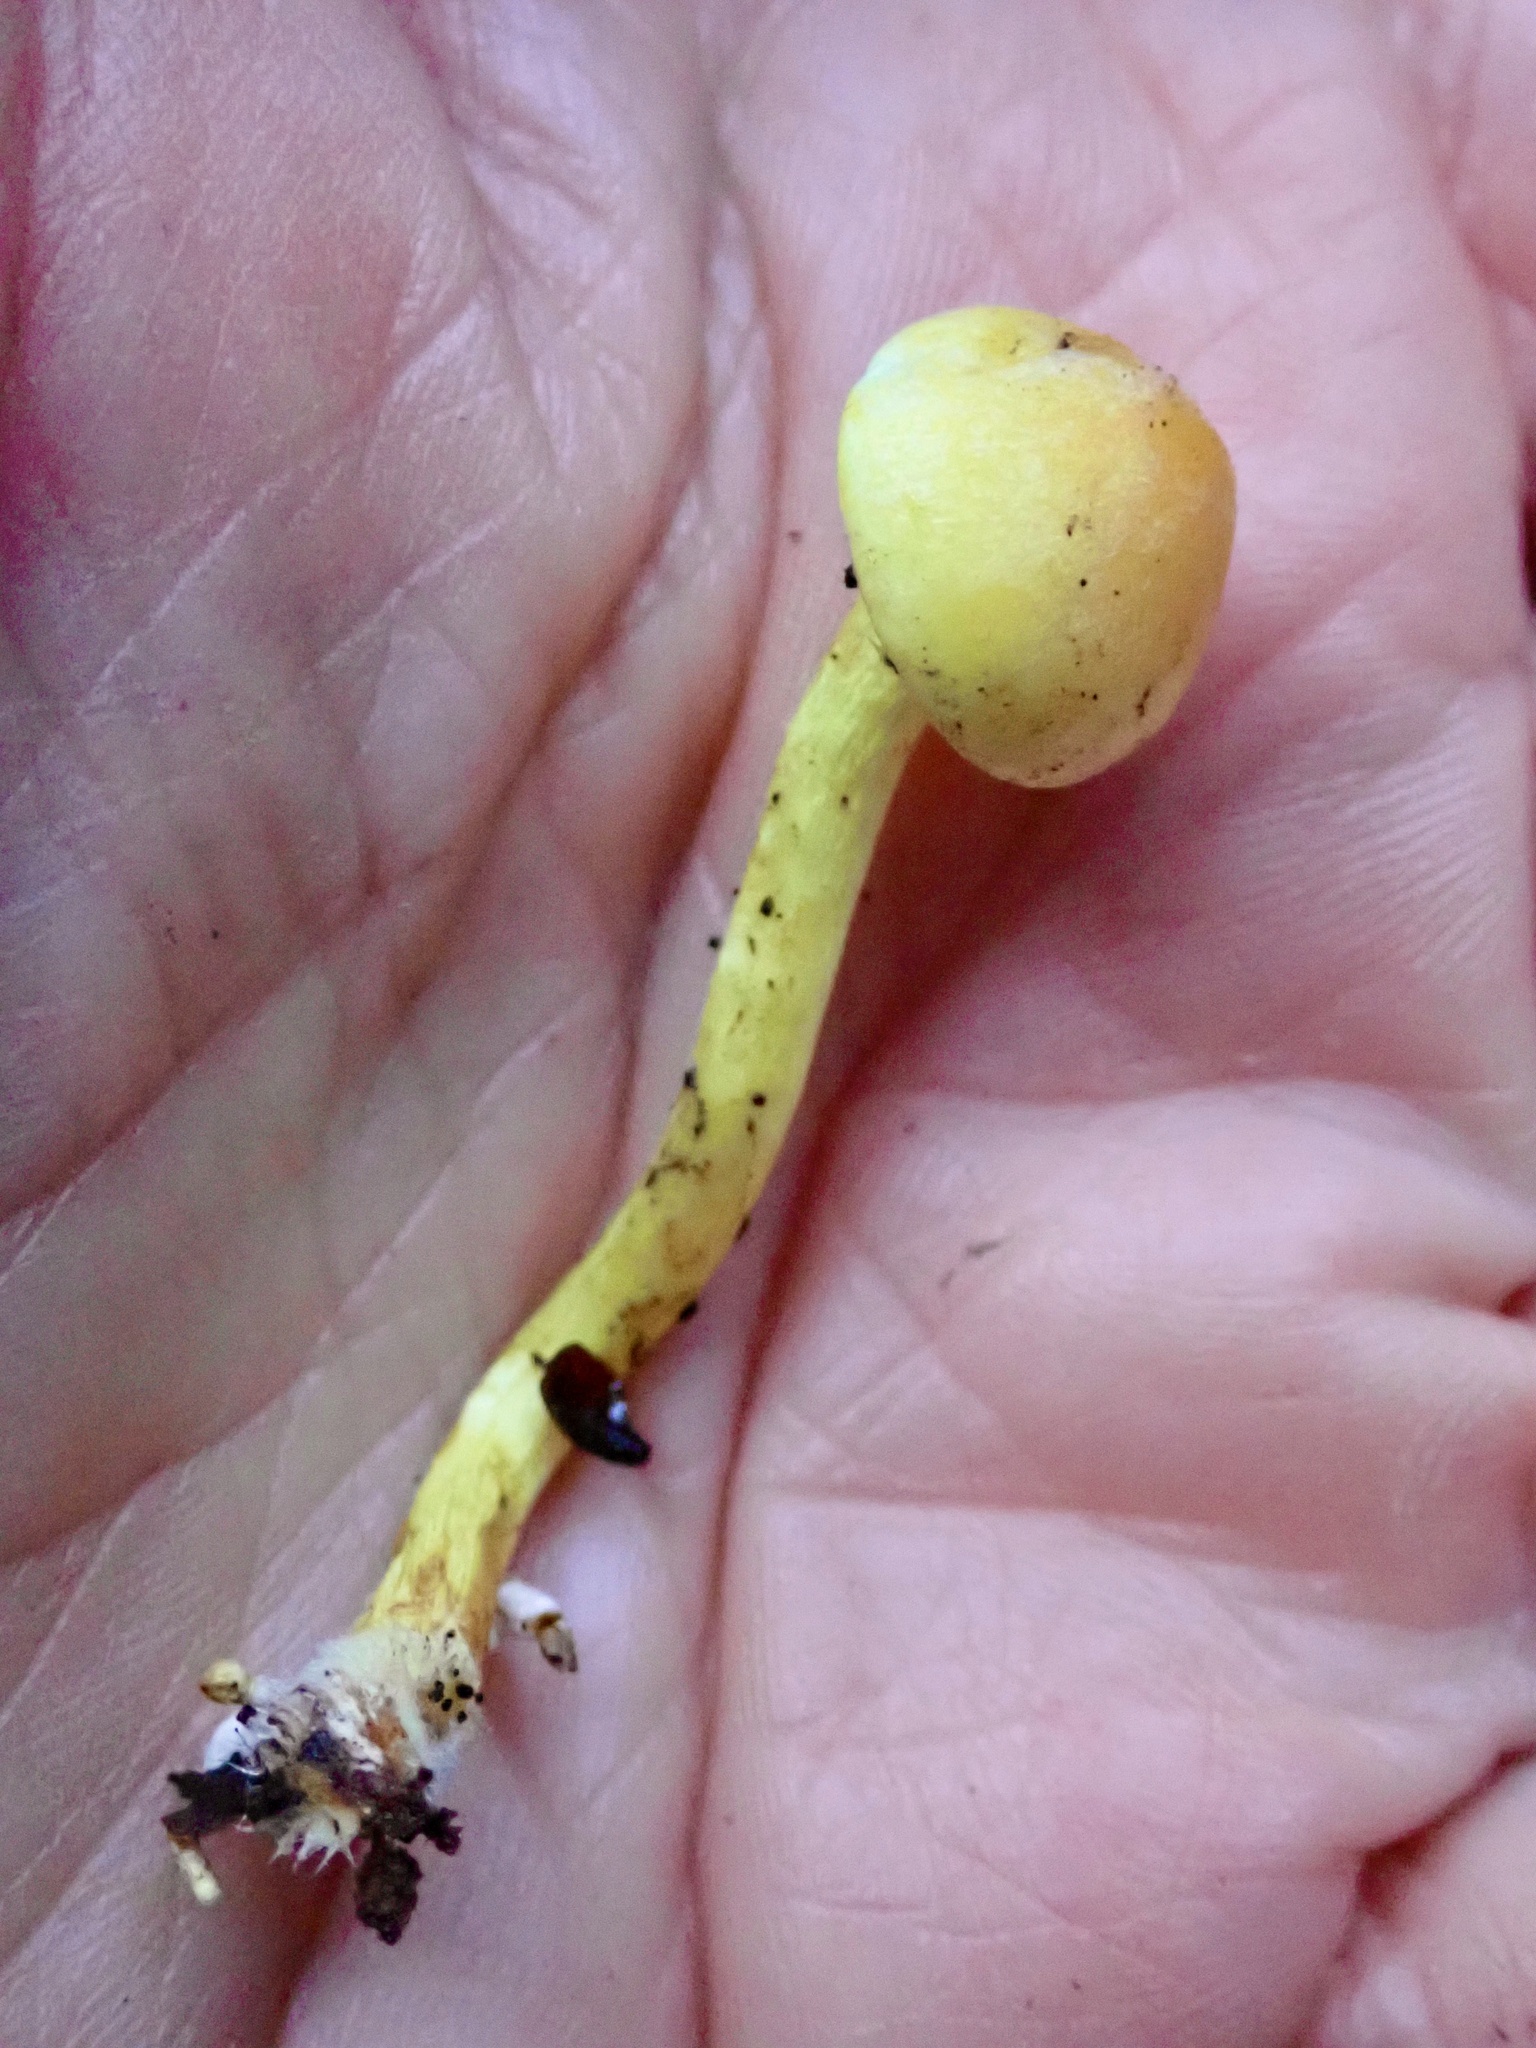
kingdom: Fungi
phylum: Basidiomycota
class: Agaricomycetes
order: Agaricales
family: Strophariaceae
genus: Hypholoma
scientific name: Hypholoma fasciculare
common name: Sulphur tuft
